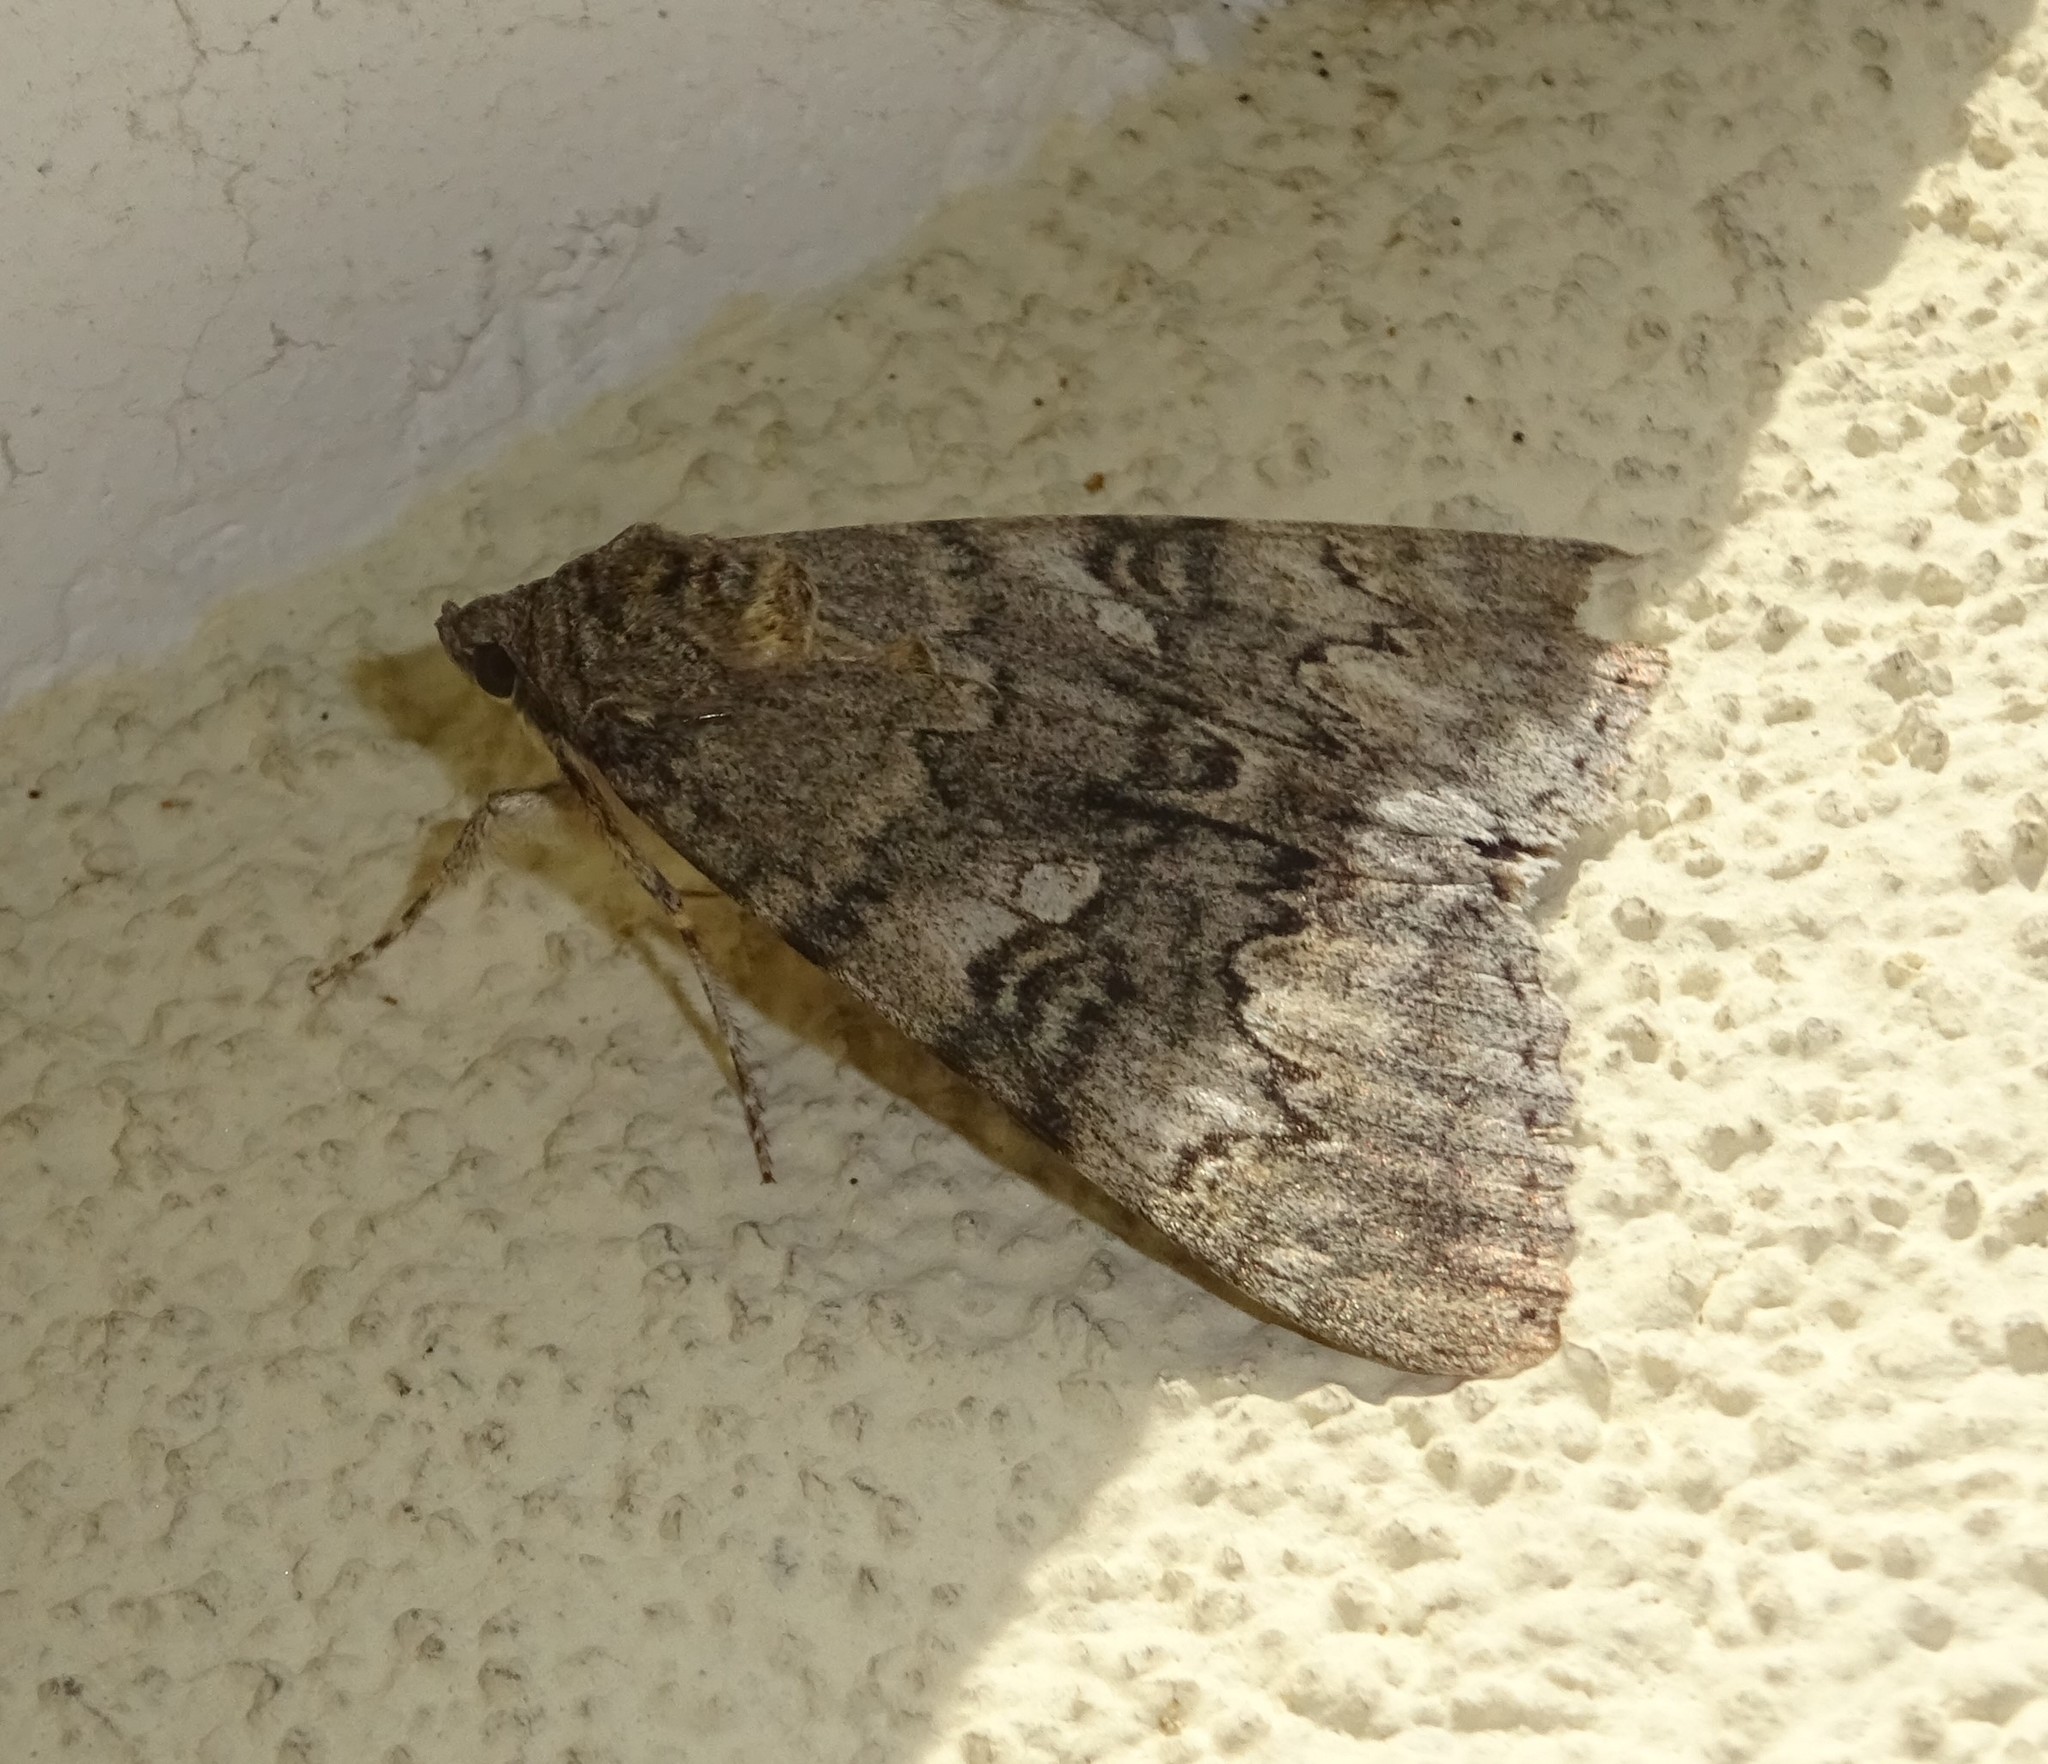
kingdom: Animalia
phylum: Arthropoda
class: Insecta
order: Lepidoptera
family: Erebidae
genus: Catocala
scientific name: Catocala nupta
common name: Red underwing
